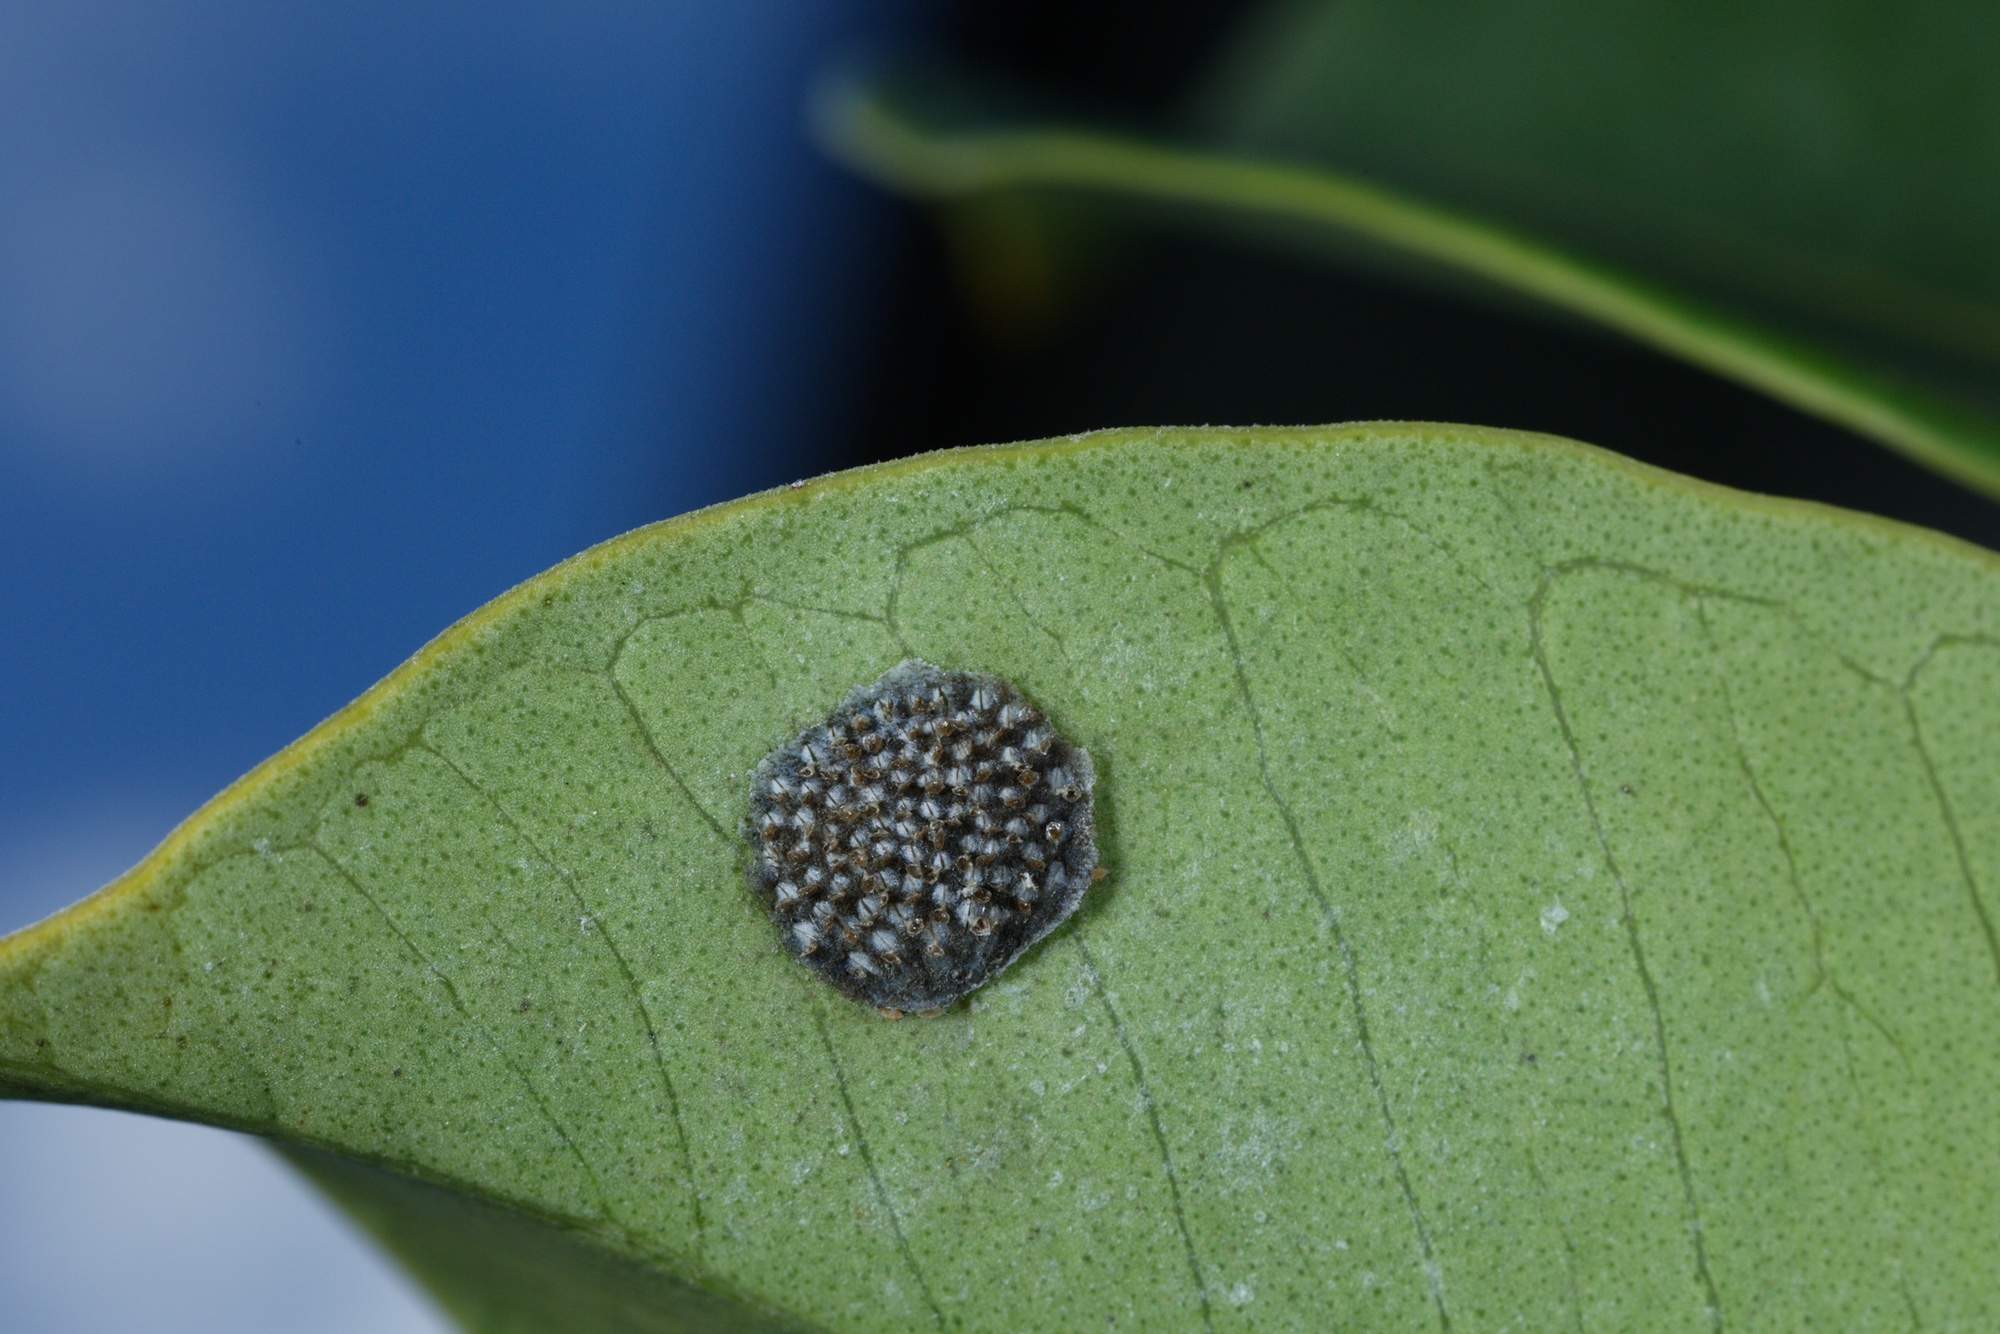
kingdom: Animalia
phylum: Arthropoda
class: Insecta
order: Hemiptera
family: Flatidae
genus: Siphanta
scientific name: Siphanta acuta
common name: Torpedo bug
